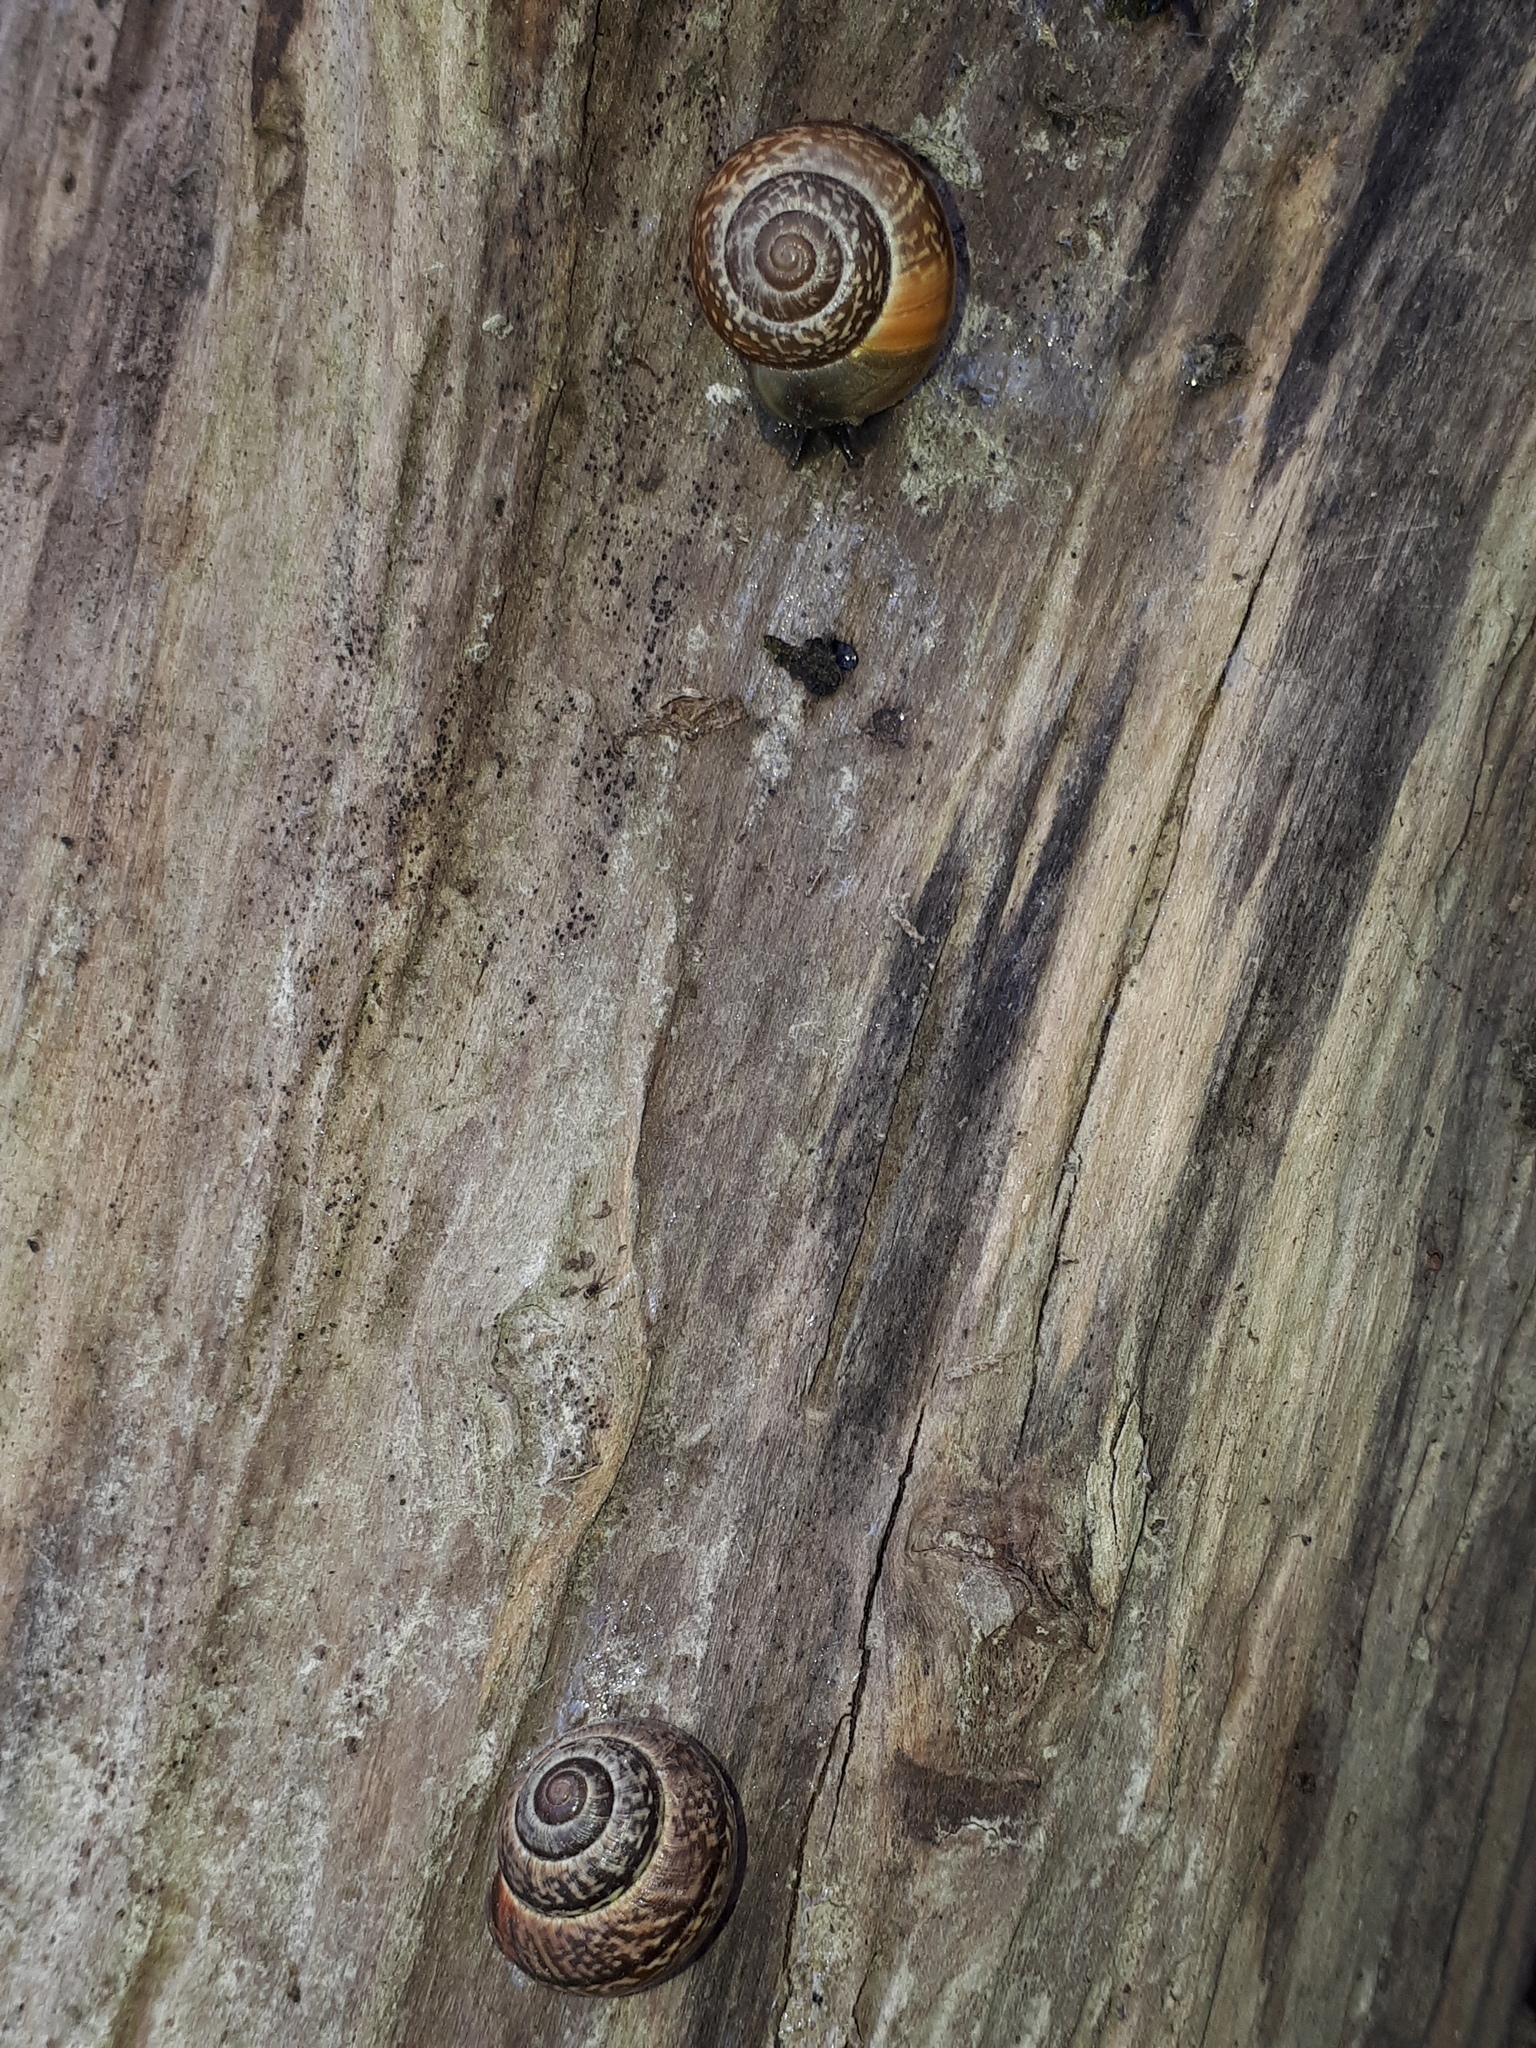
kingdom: Animalia
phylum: Mollusca
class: Gastropoda
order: Stylommatophora
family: Helicidae
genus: Arianta
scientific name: Arianta arbustorum
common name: Copse snail
